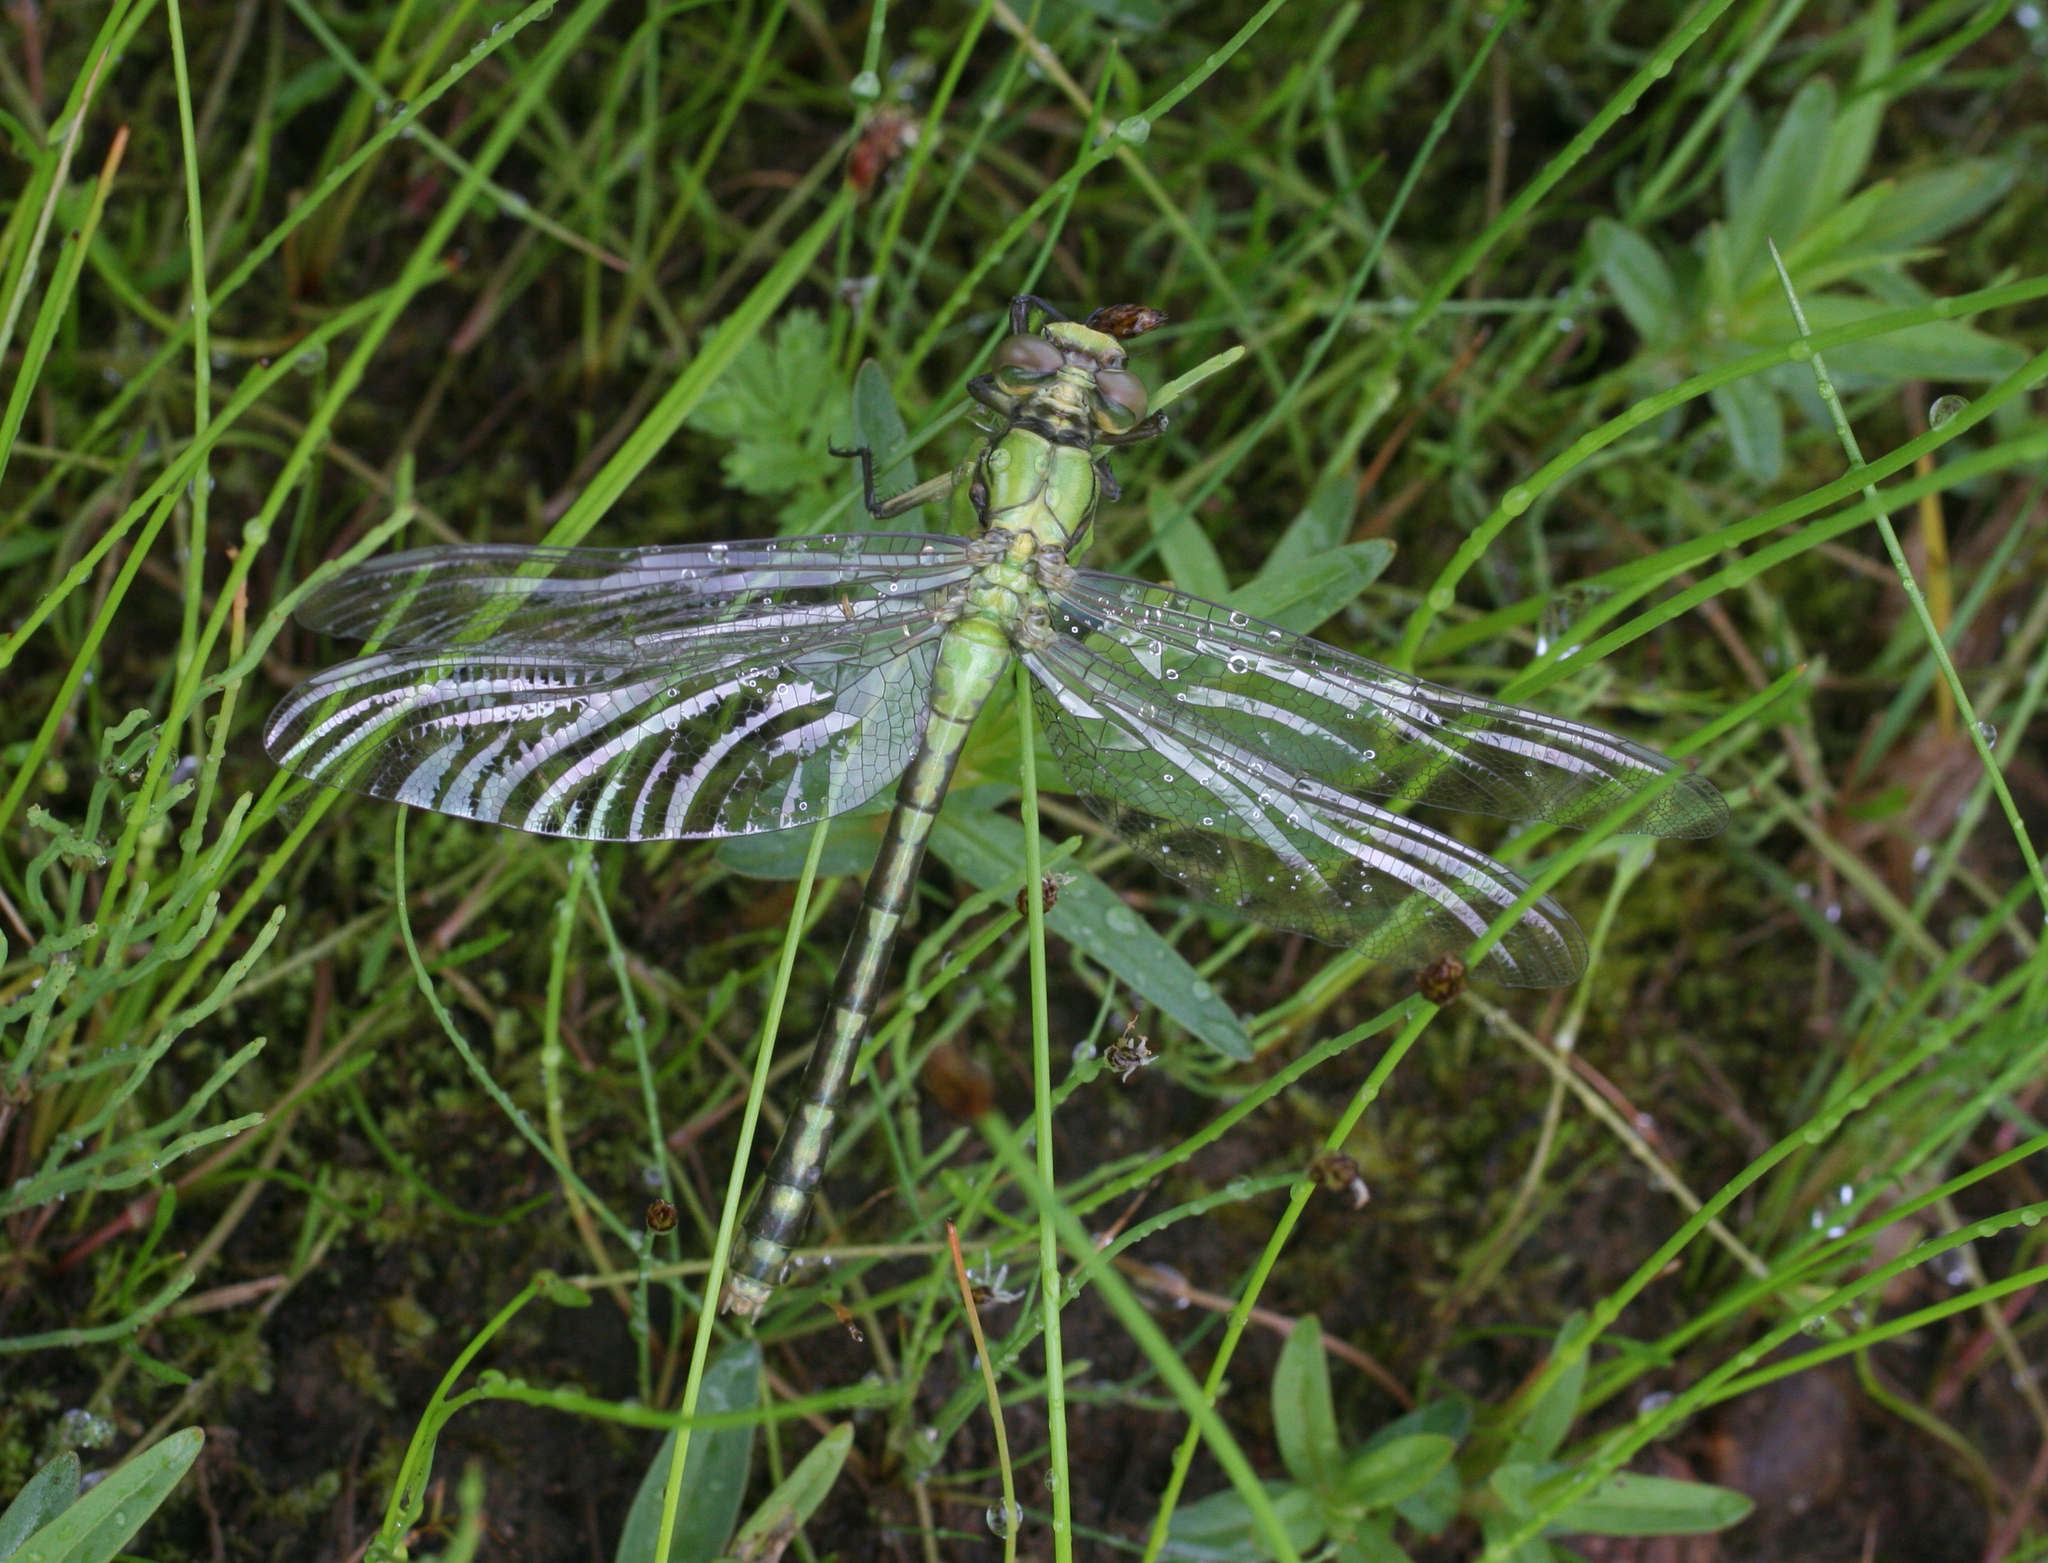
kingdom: Animalia
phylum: Arthropoda
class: Insecta
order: Odonata
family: Gomphidae
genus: Ophiogomphus
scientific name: Ophiogomphus obscurus
